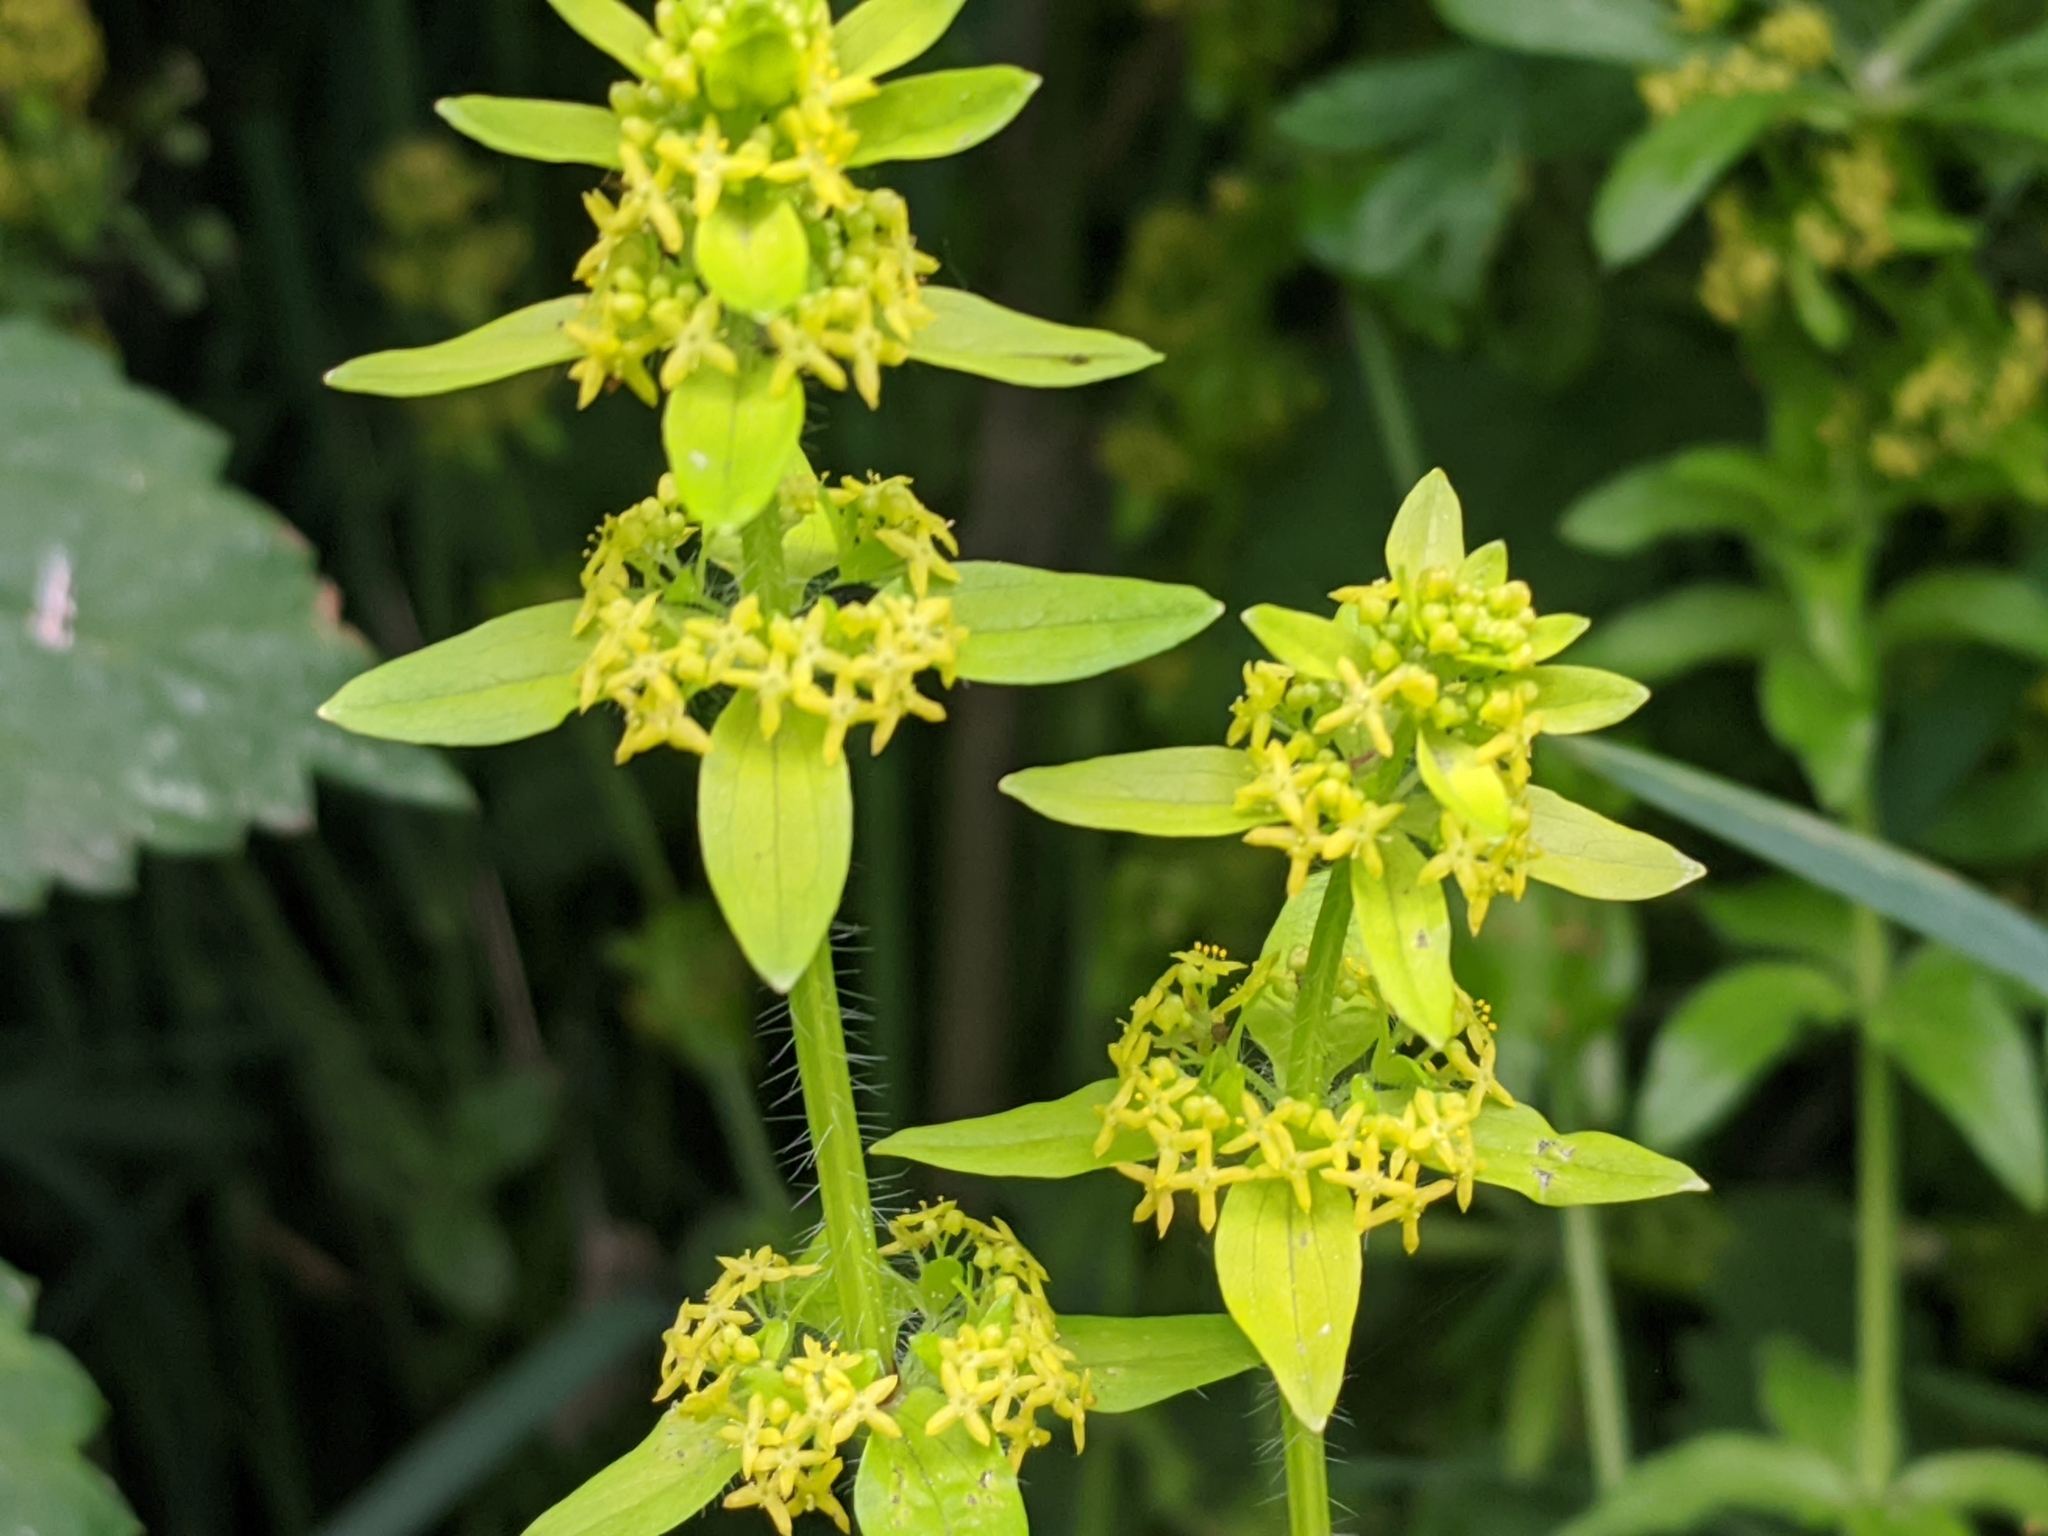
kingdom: Plantae
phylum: Tracheophyta
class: Magnoliopsida
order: Gentianales
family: Rubiaceae
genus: Cruciata
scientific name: Cruciata laevipes
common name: Crosswort
